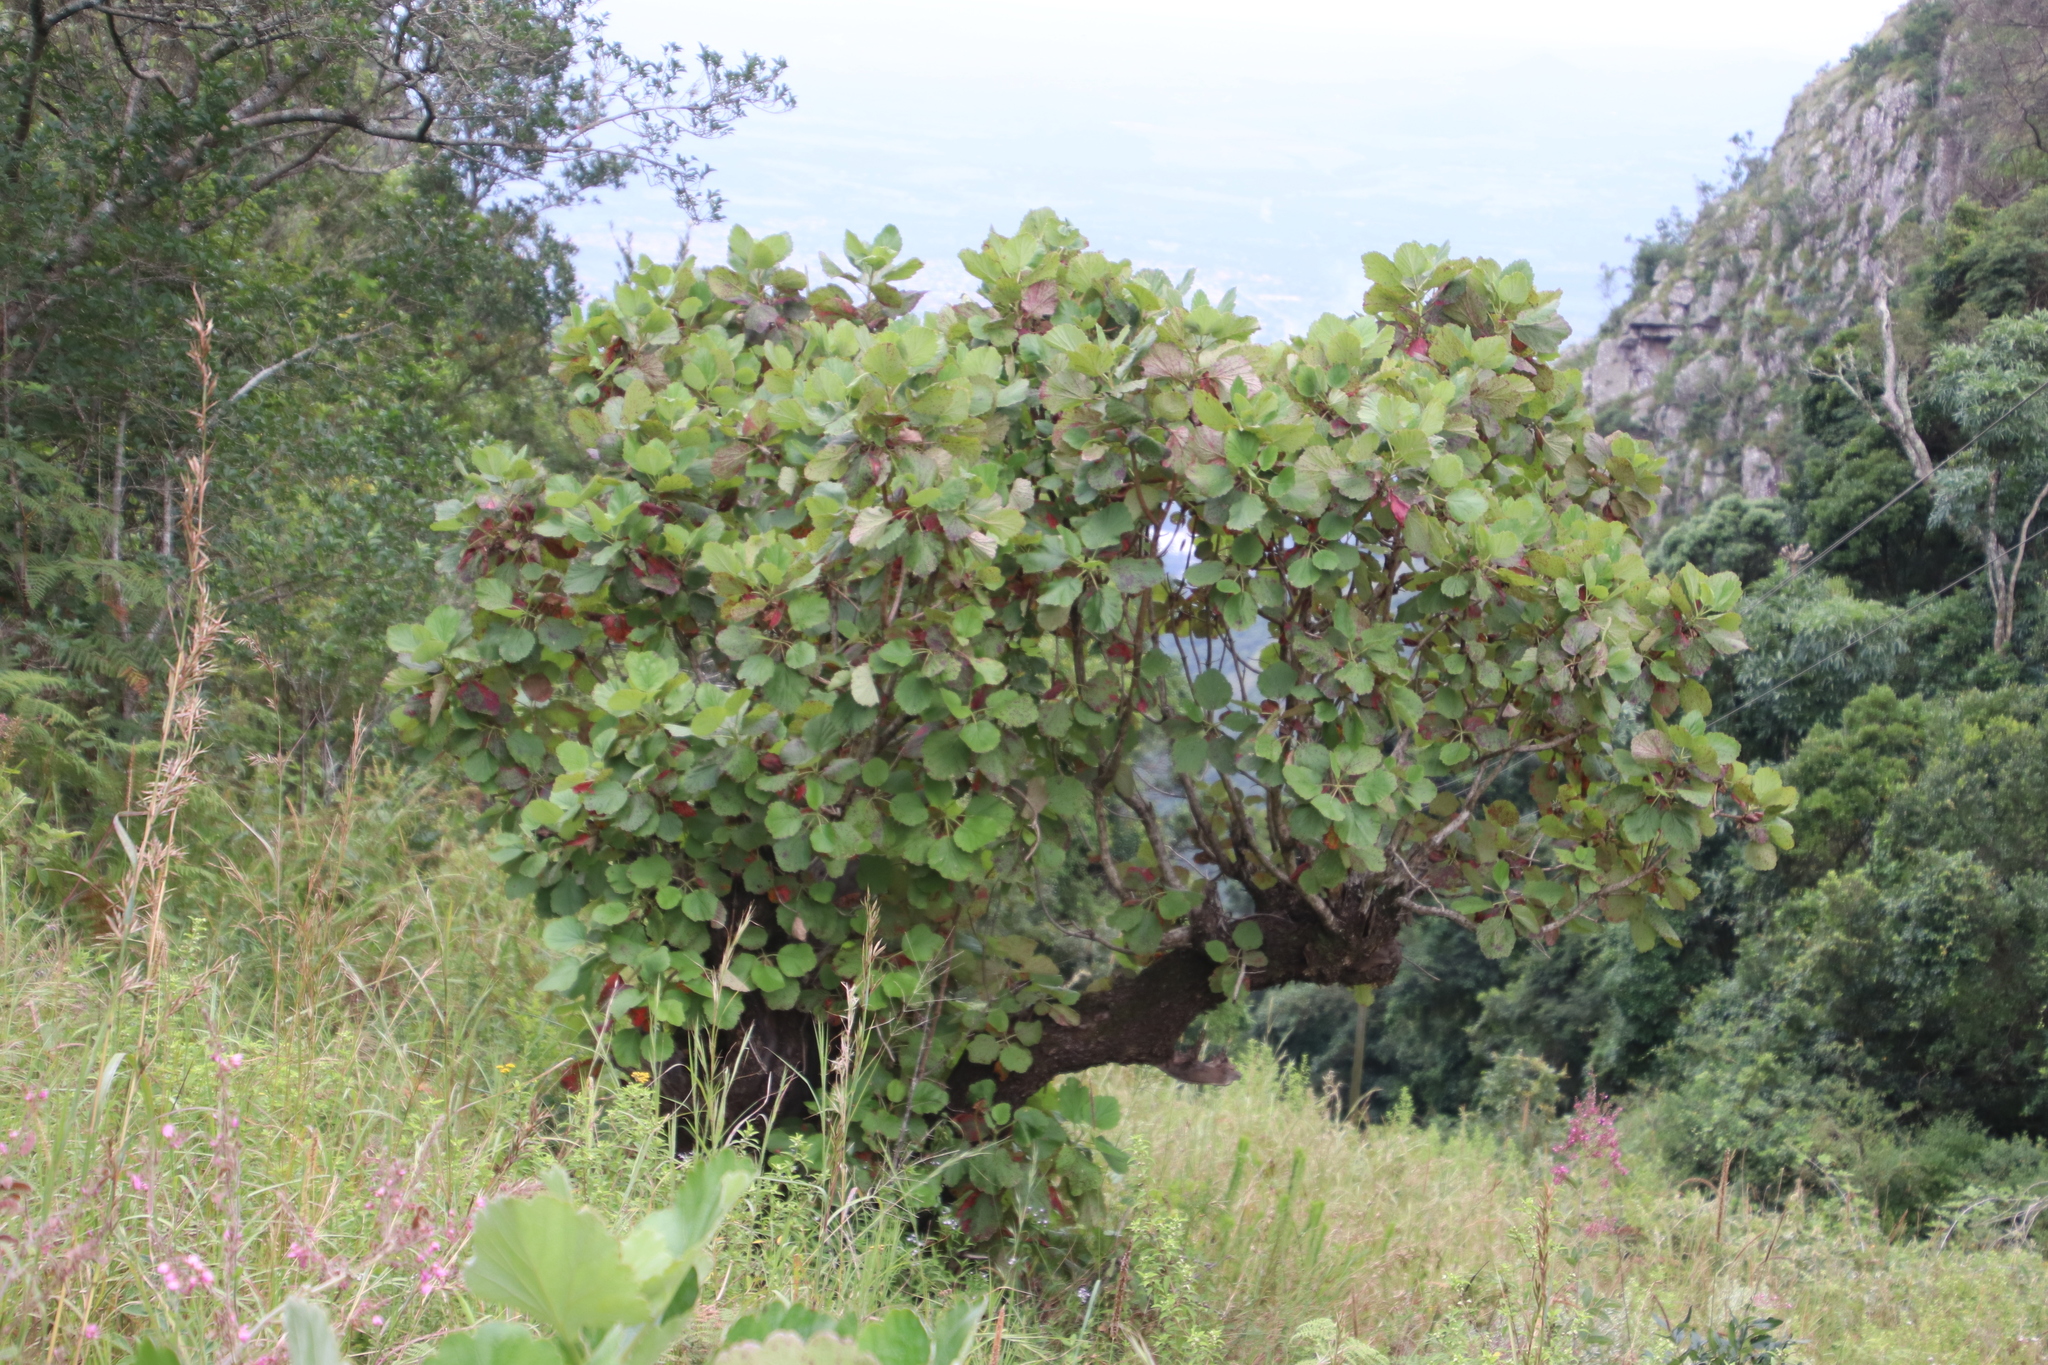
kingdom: Plantae
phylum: Tracheophyta
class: Magnoliopsida
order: Geraniales
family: Francoaceae
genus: Greyia
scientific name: Greyia radlkoferi
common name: Natal bottlebrush
